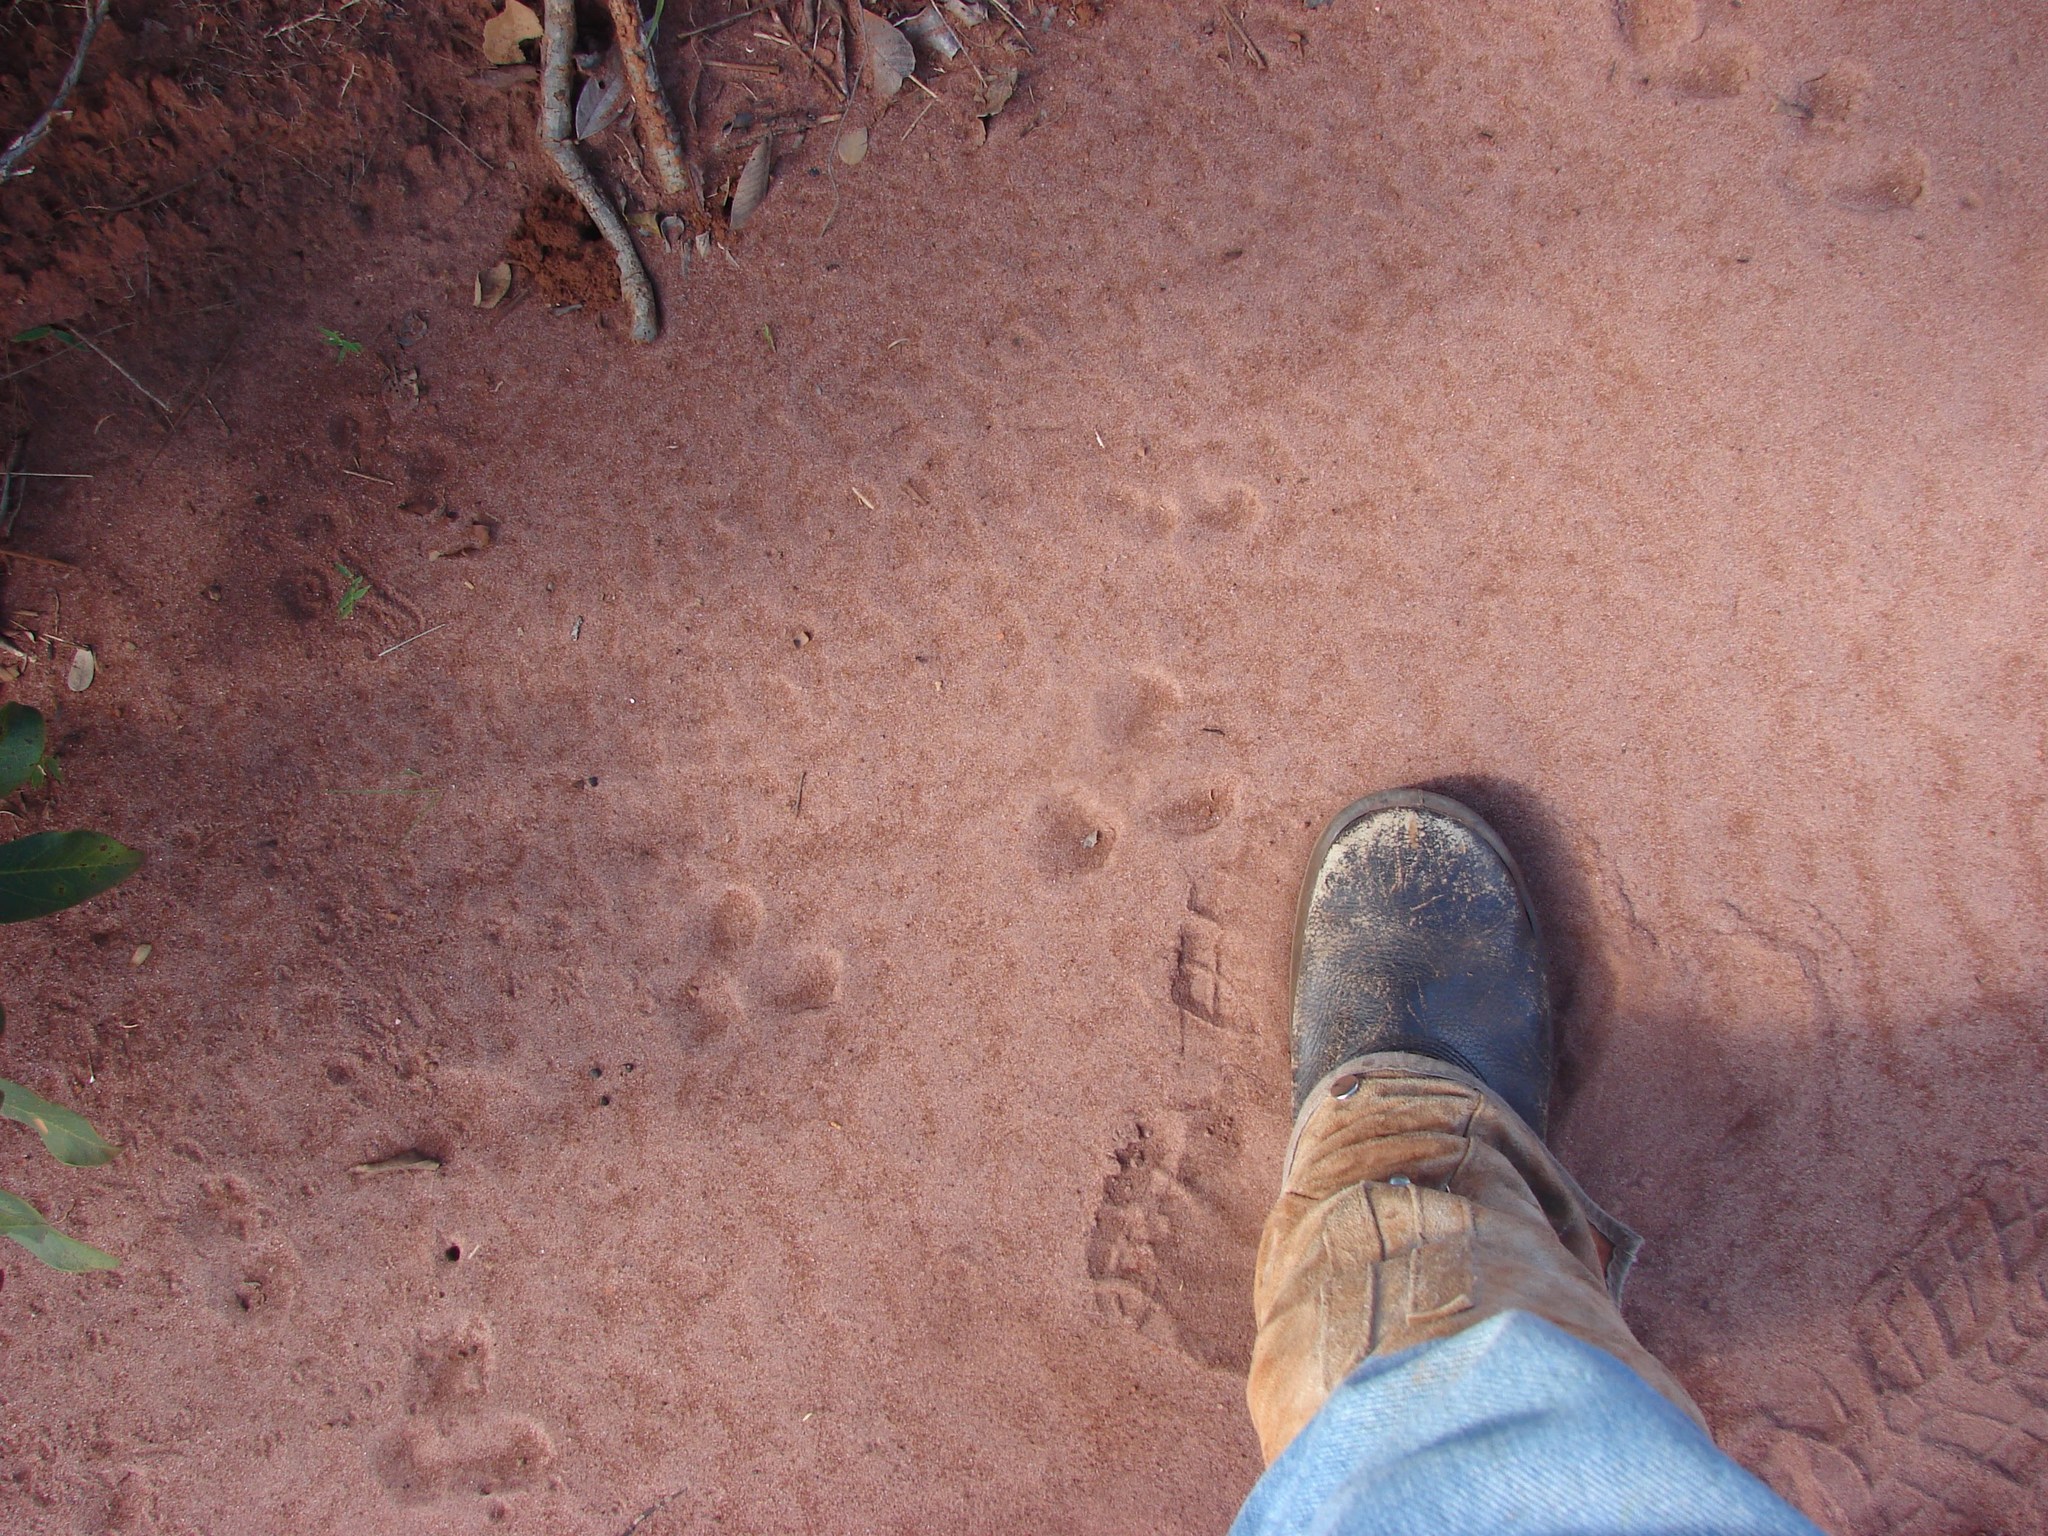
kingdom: Animalia
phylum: Chordata
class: Aves
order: Rheiformes
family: Rheidae
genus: Rhea
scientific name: Rhea americana
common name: Greater rhea
